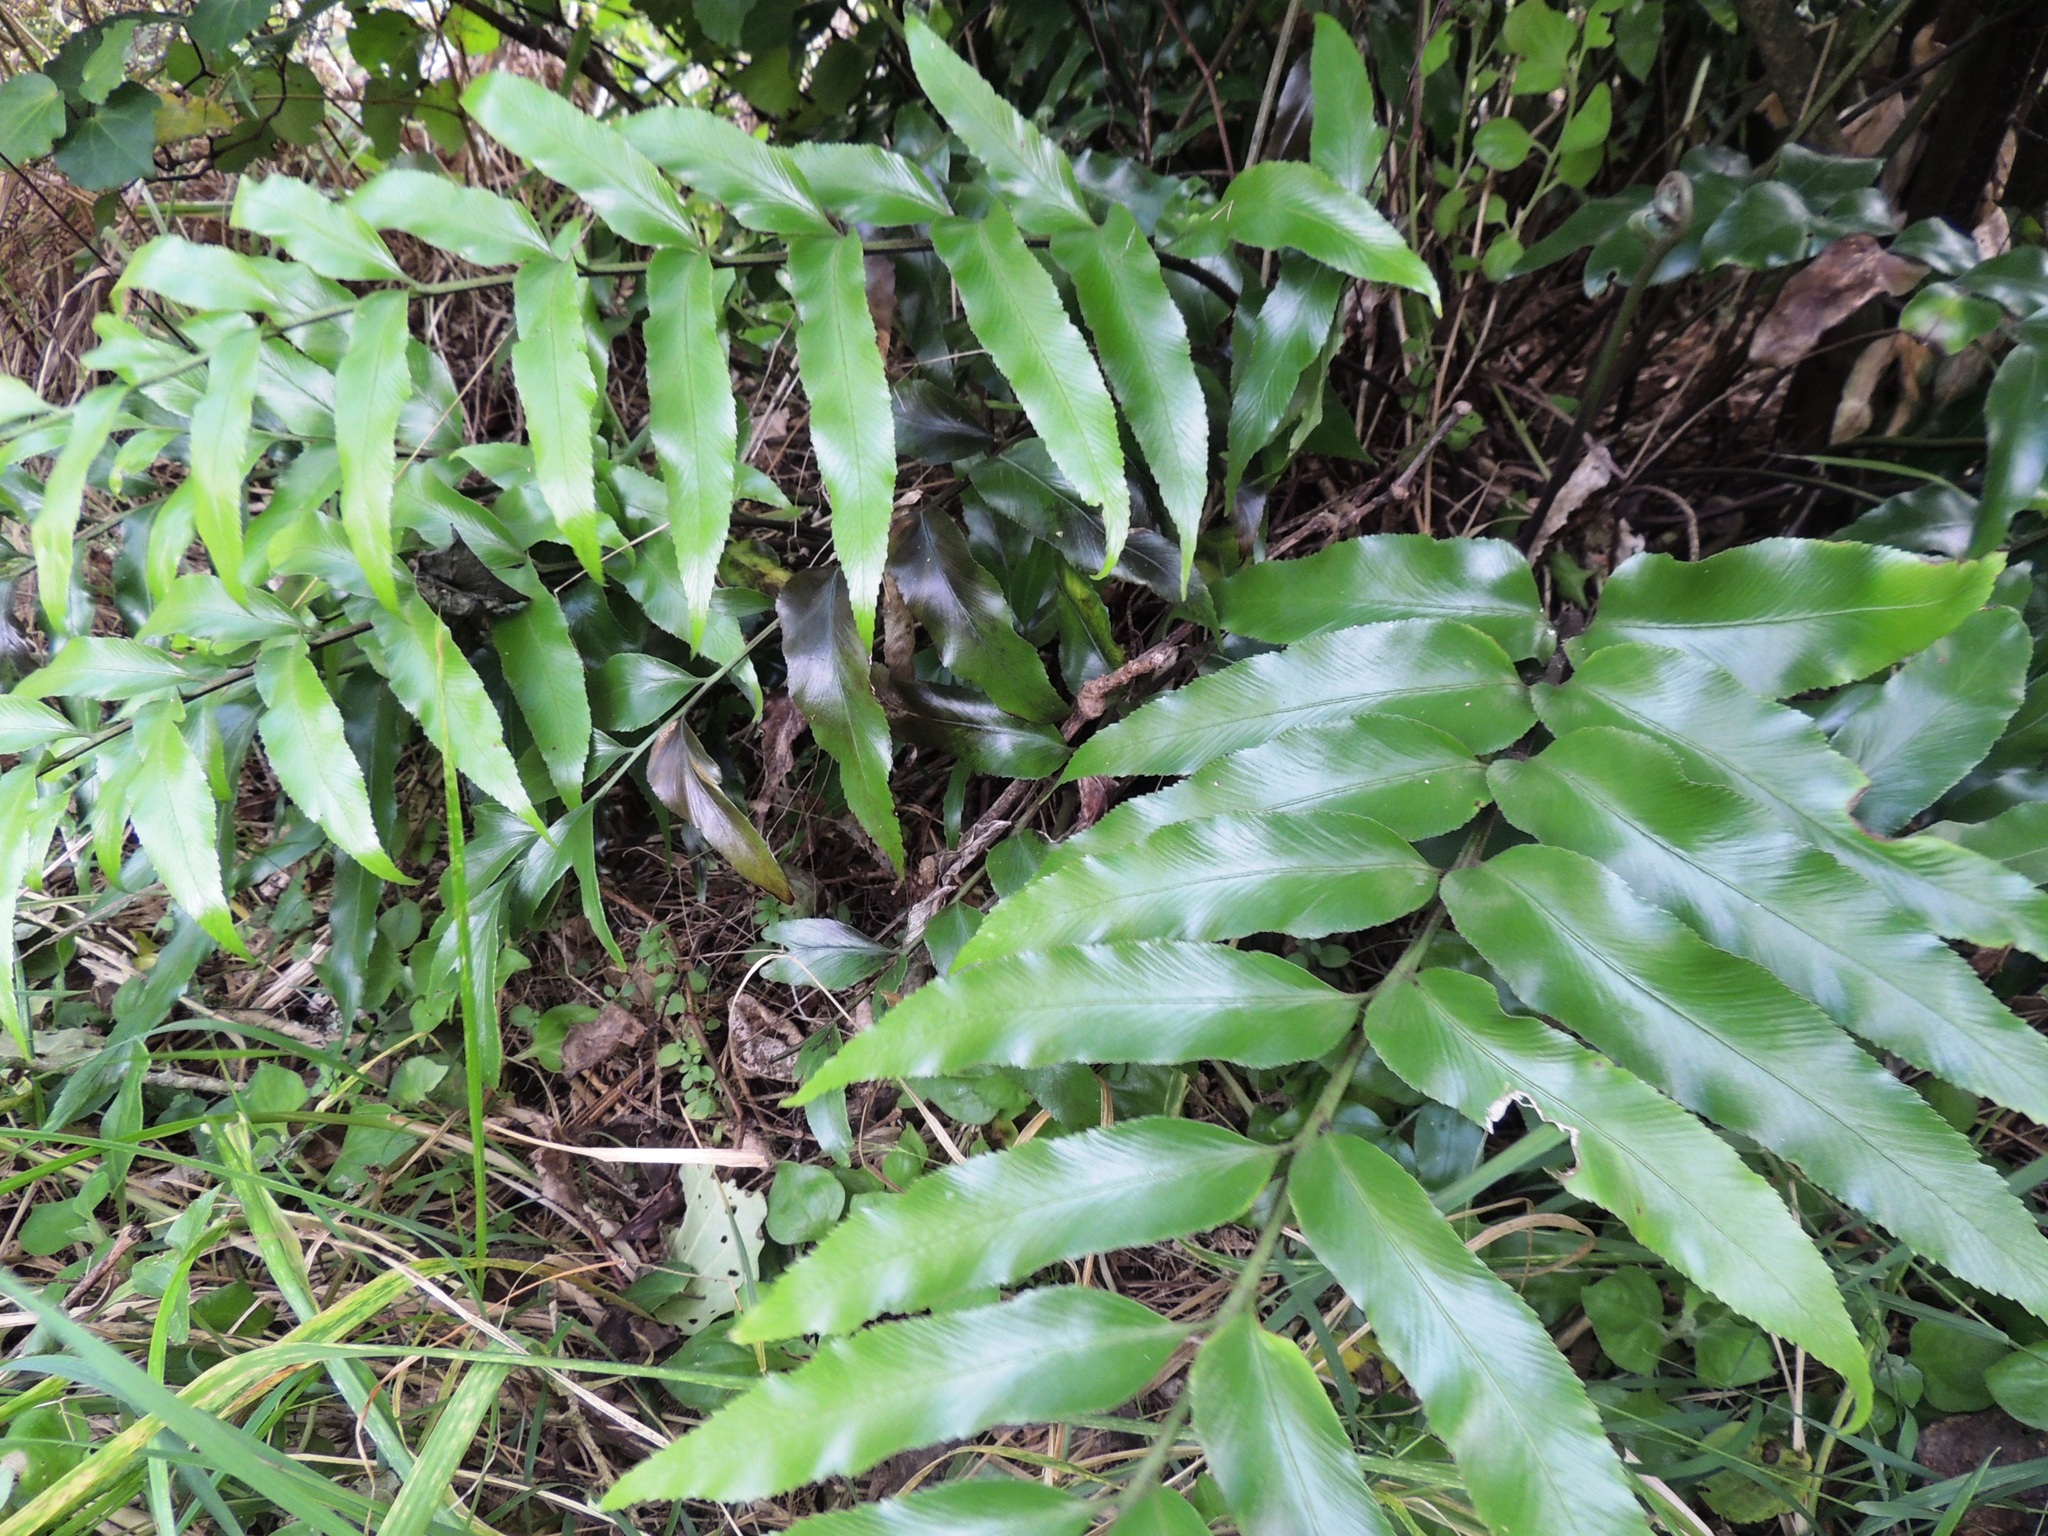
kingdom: Plantae
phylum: Tracheophyta
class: Polypodiopsida
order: Polypodiales
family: Aspleniaceae
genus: Asplenium
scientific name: Asplenium oblongifolium
